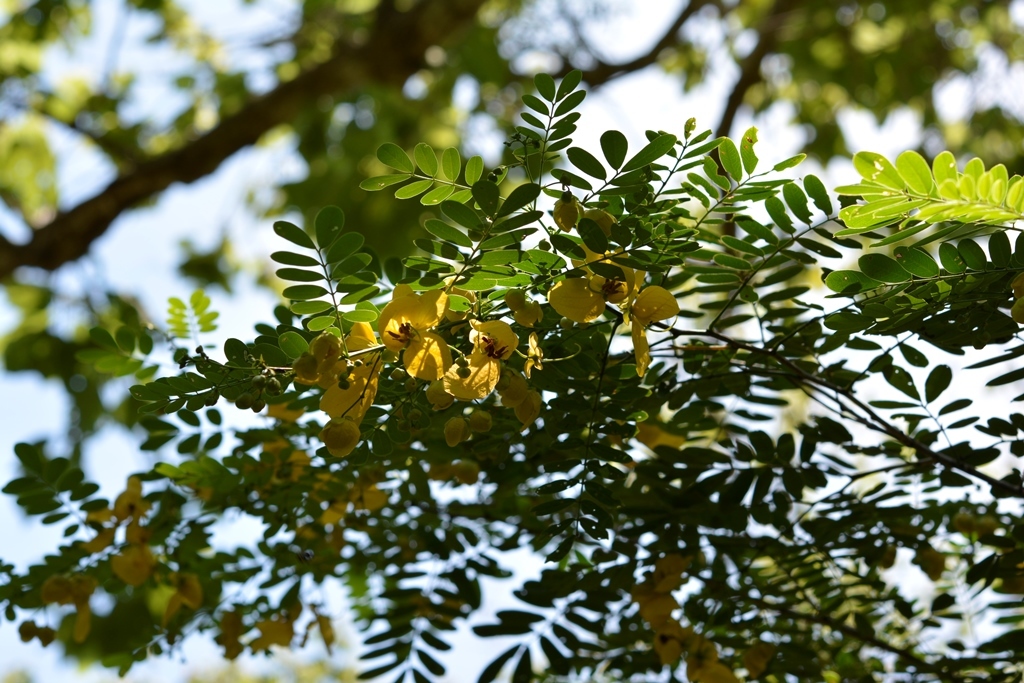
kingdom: Plantae
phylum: Tracheophyta
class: Magnoliopsida
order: Fabales
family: Fabaceae
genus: Senna
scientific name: Senna pallida
